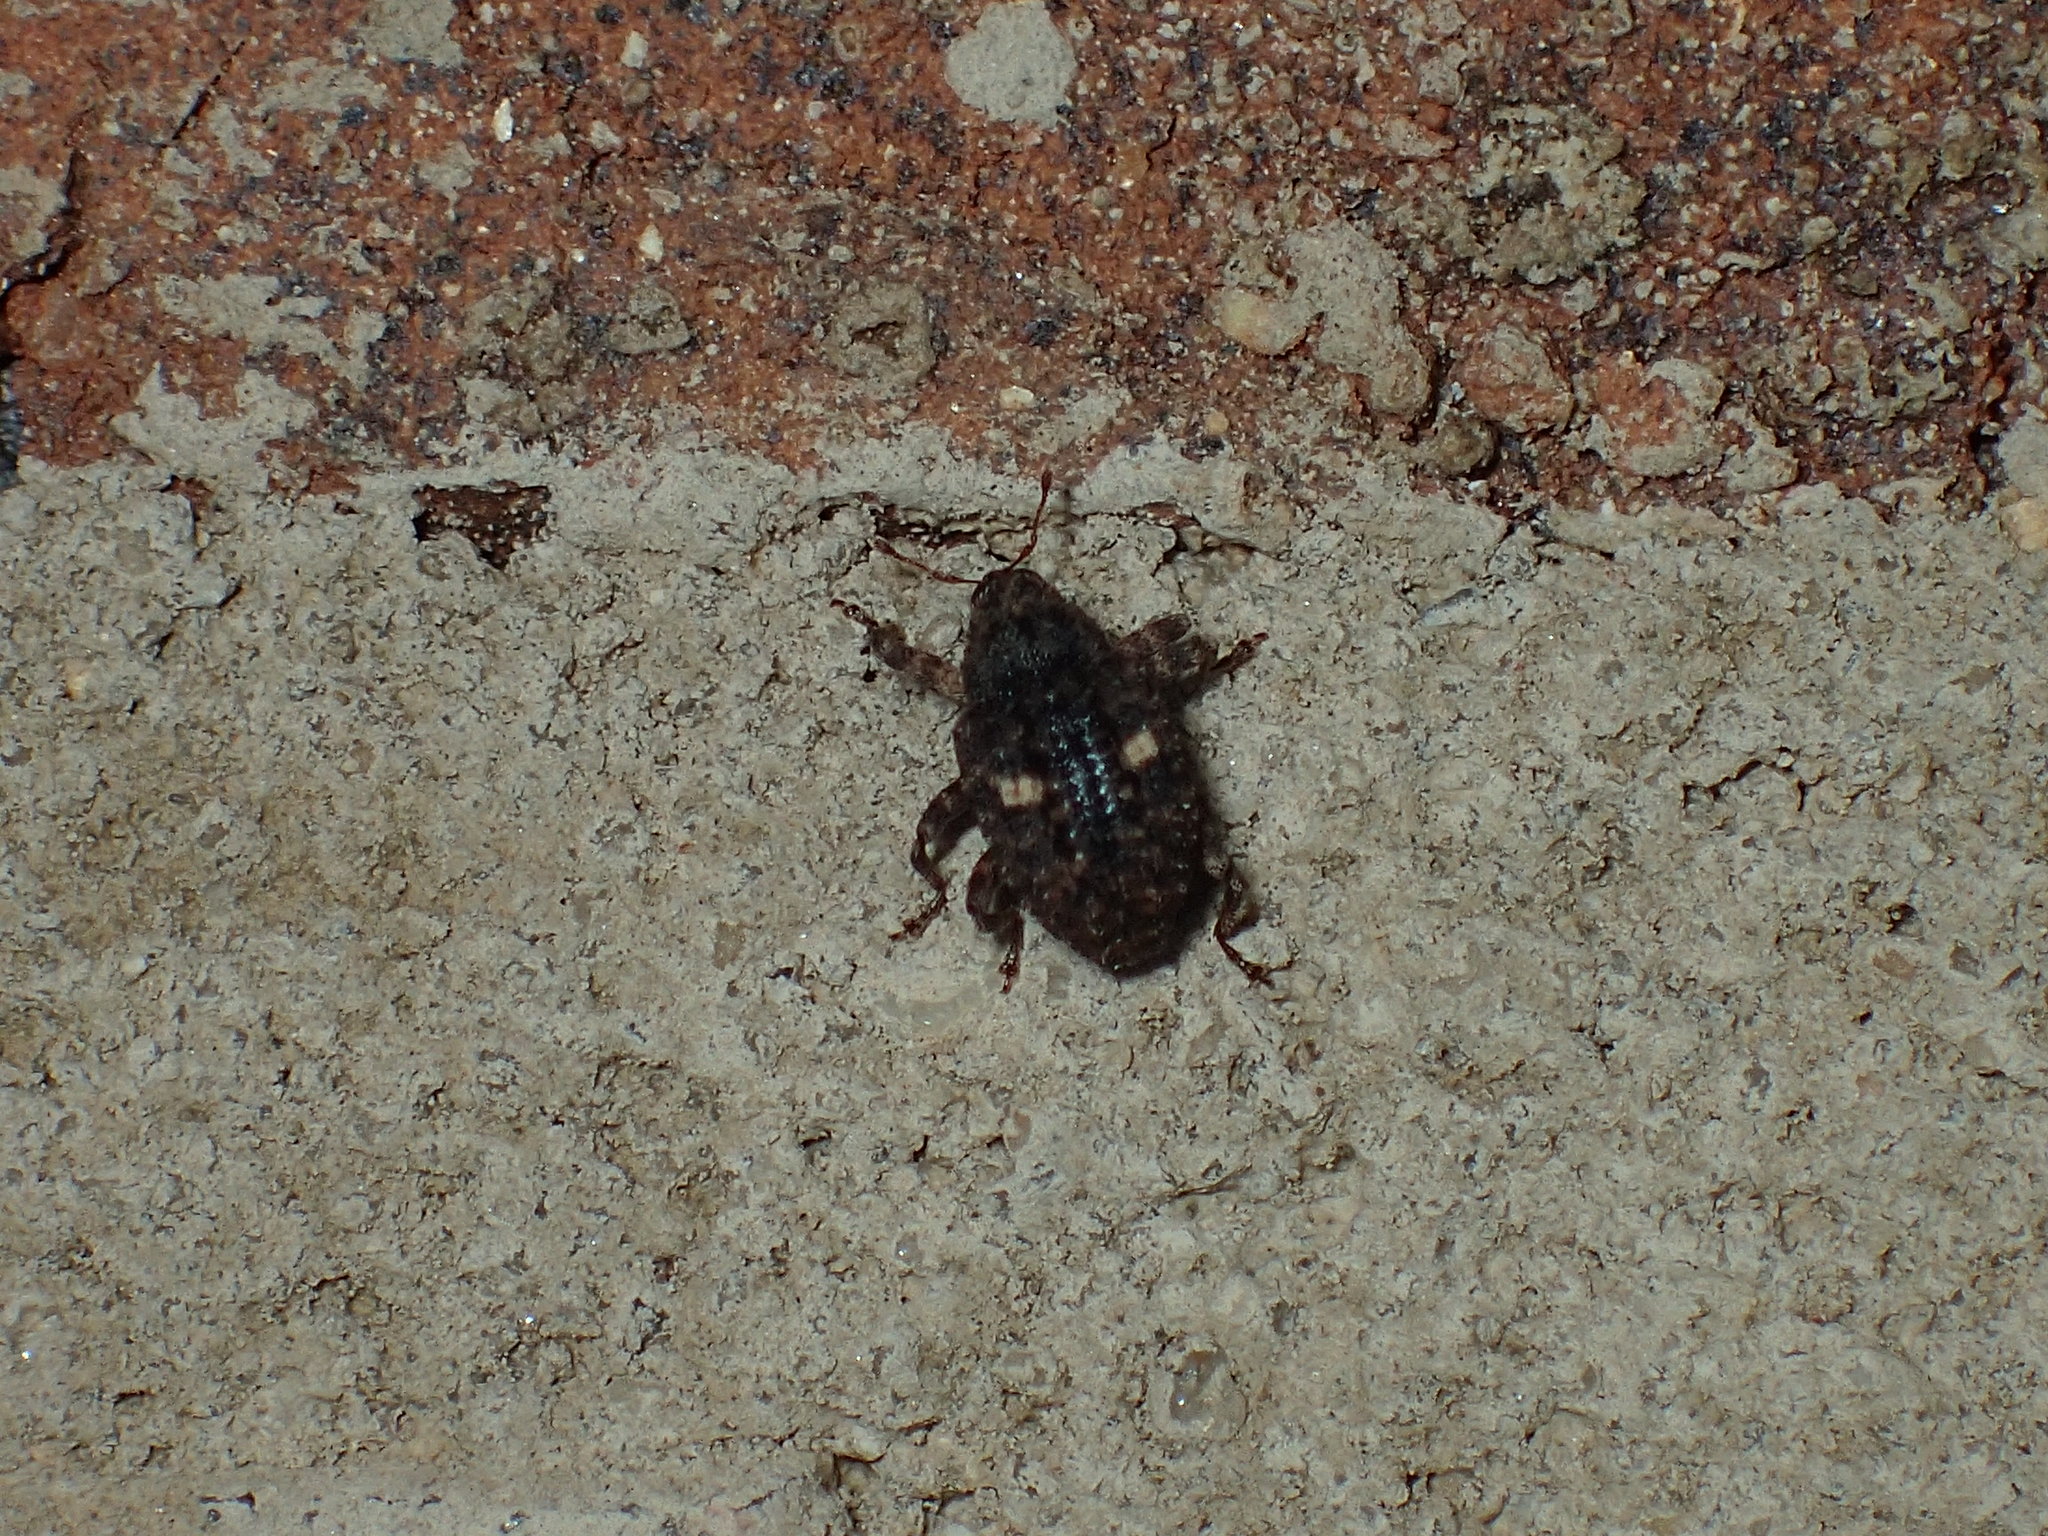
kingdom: Animalia
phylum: Arthropoda
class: Insecta
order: Coleoptera
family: Curculionidae
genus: Eubulus
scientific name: Eubulus bisignatus
